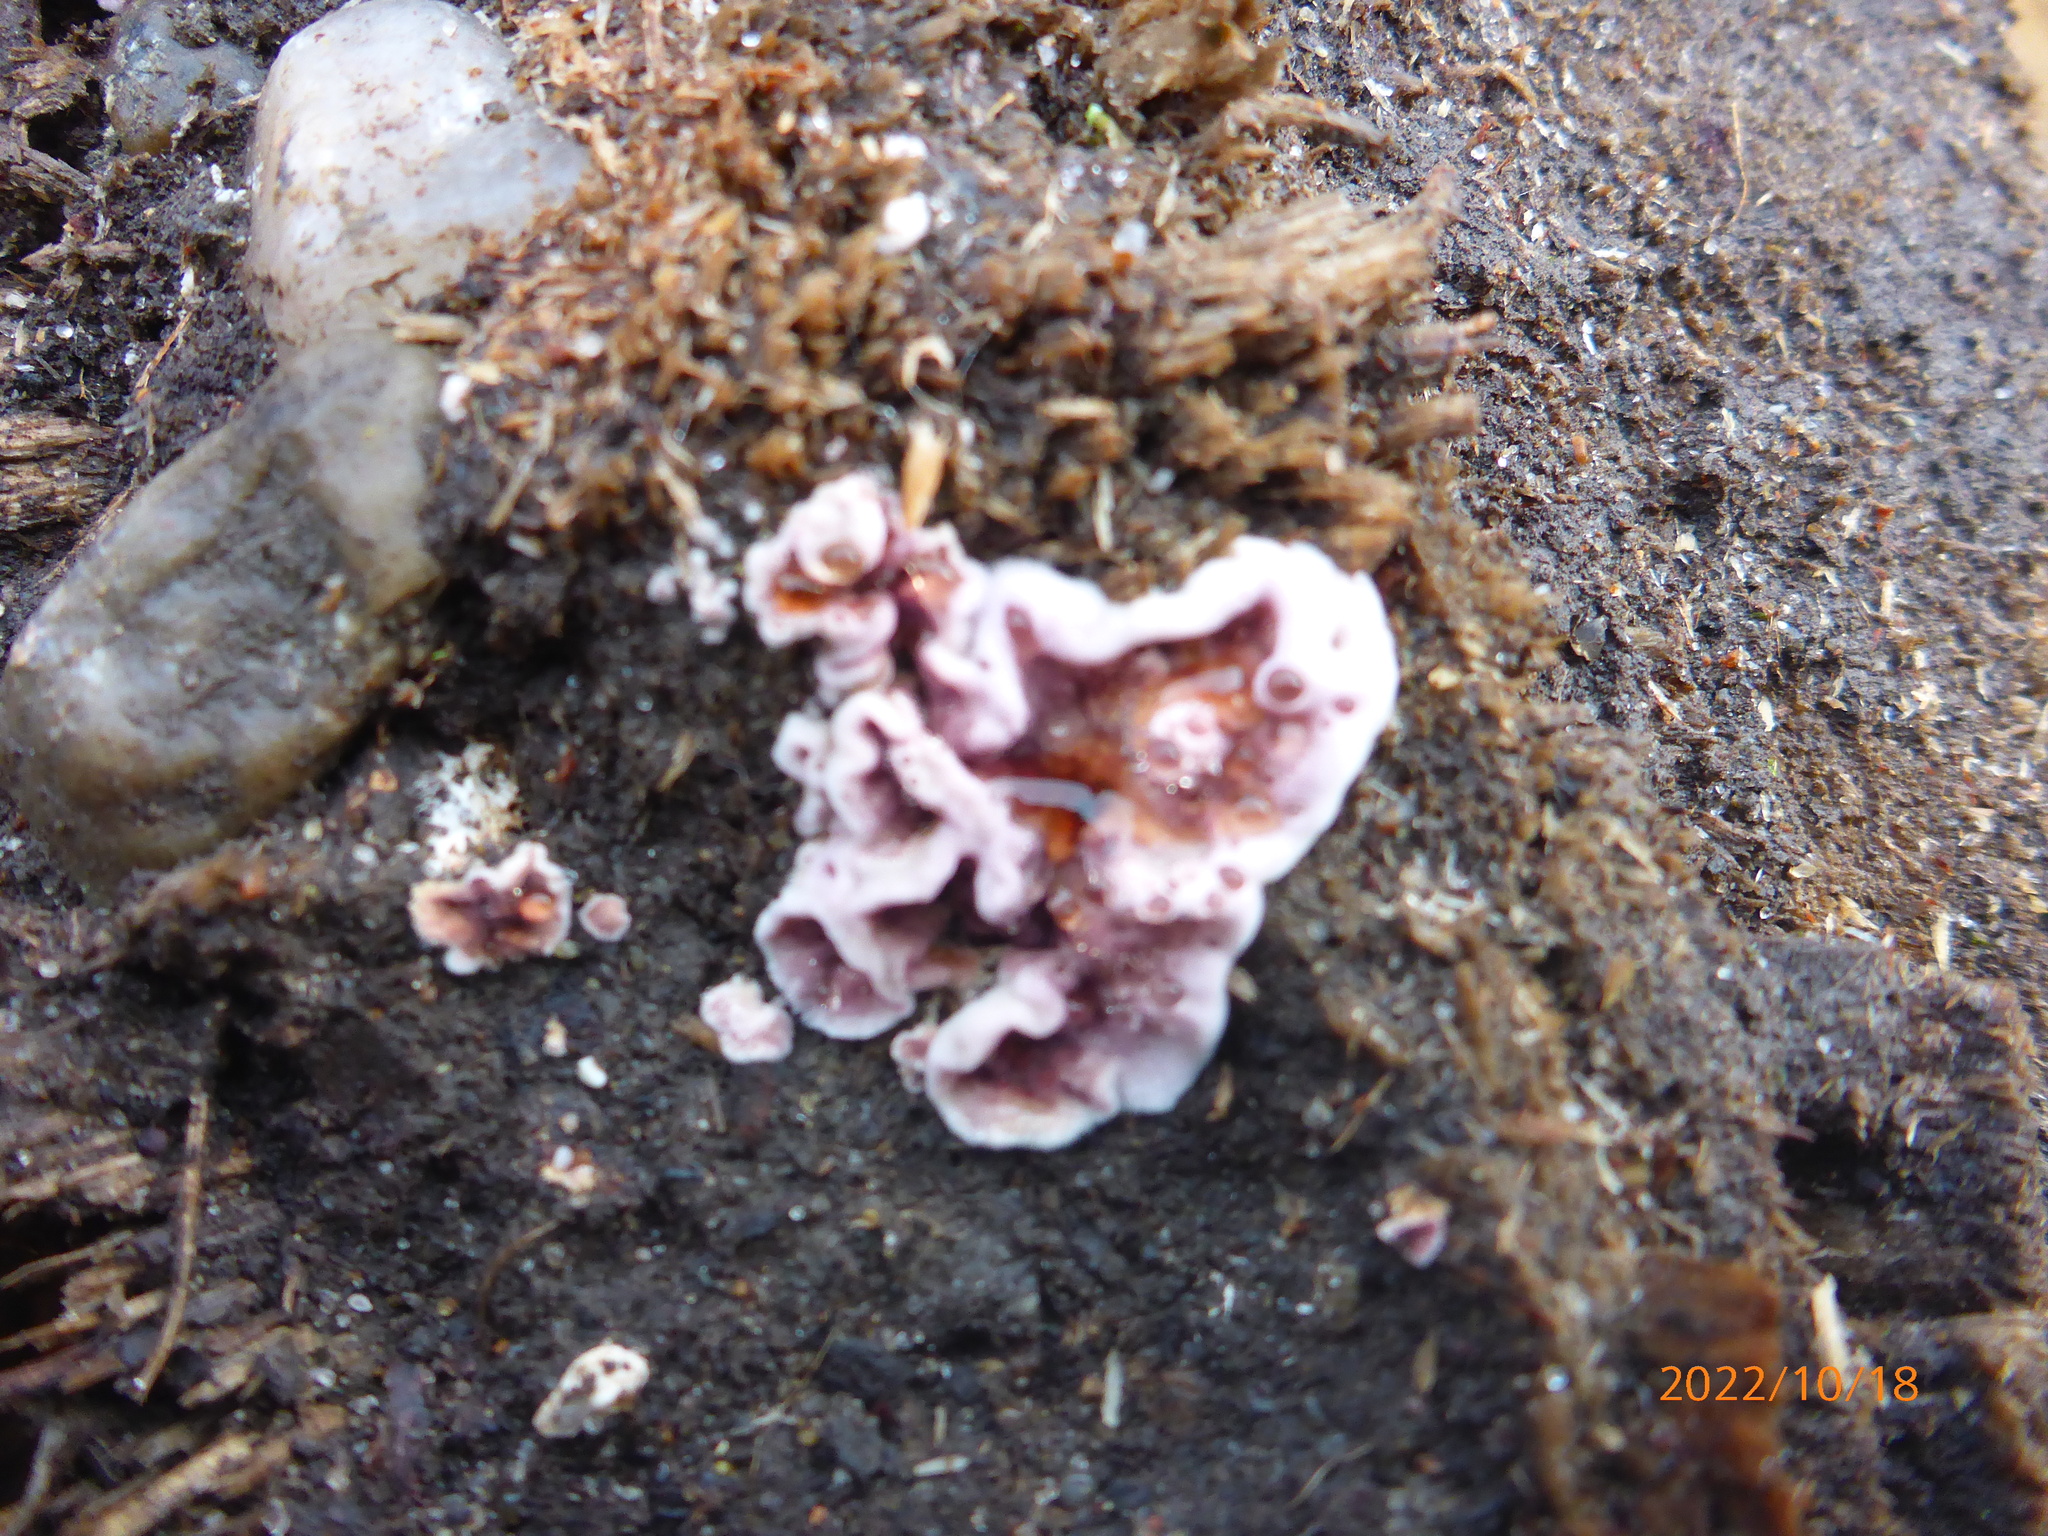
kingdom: Fungi
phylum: Basidiomycota
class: Agaricomycetes
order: Agaricales
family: Cyphellaceae
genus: Chondrostereum
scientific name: Chondrostereum purpureum
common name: Silver leaf disease
